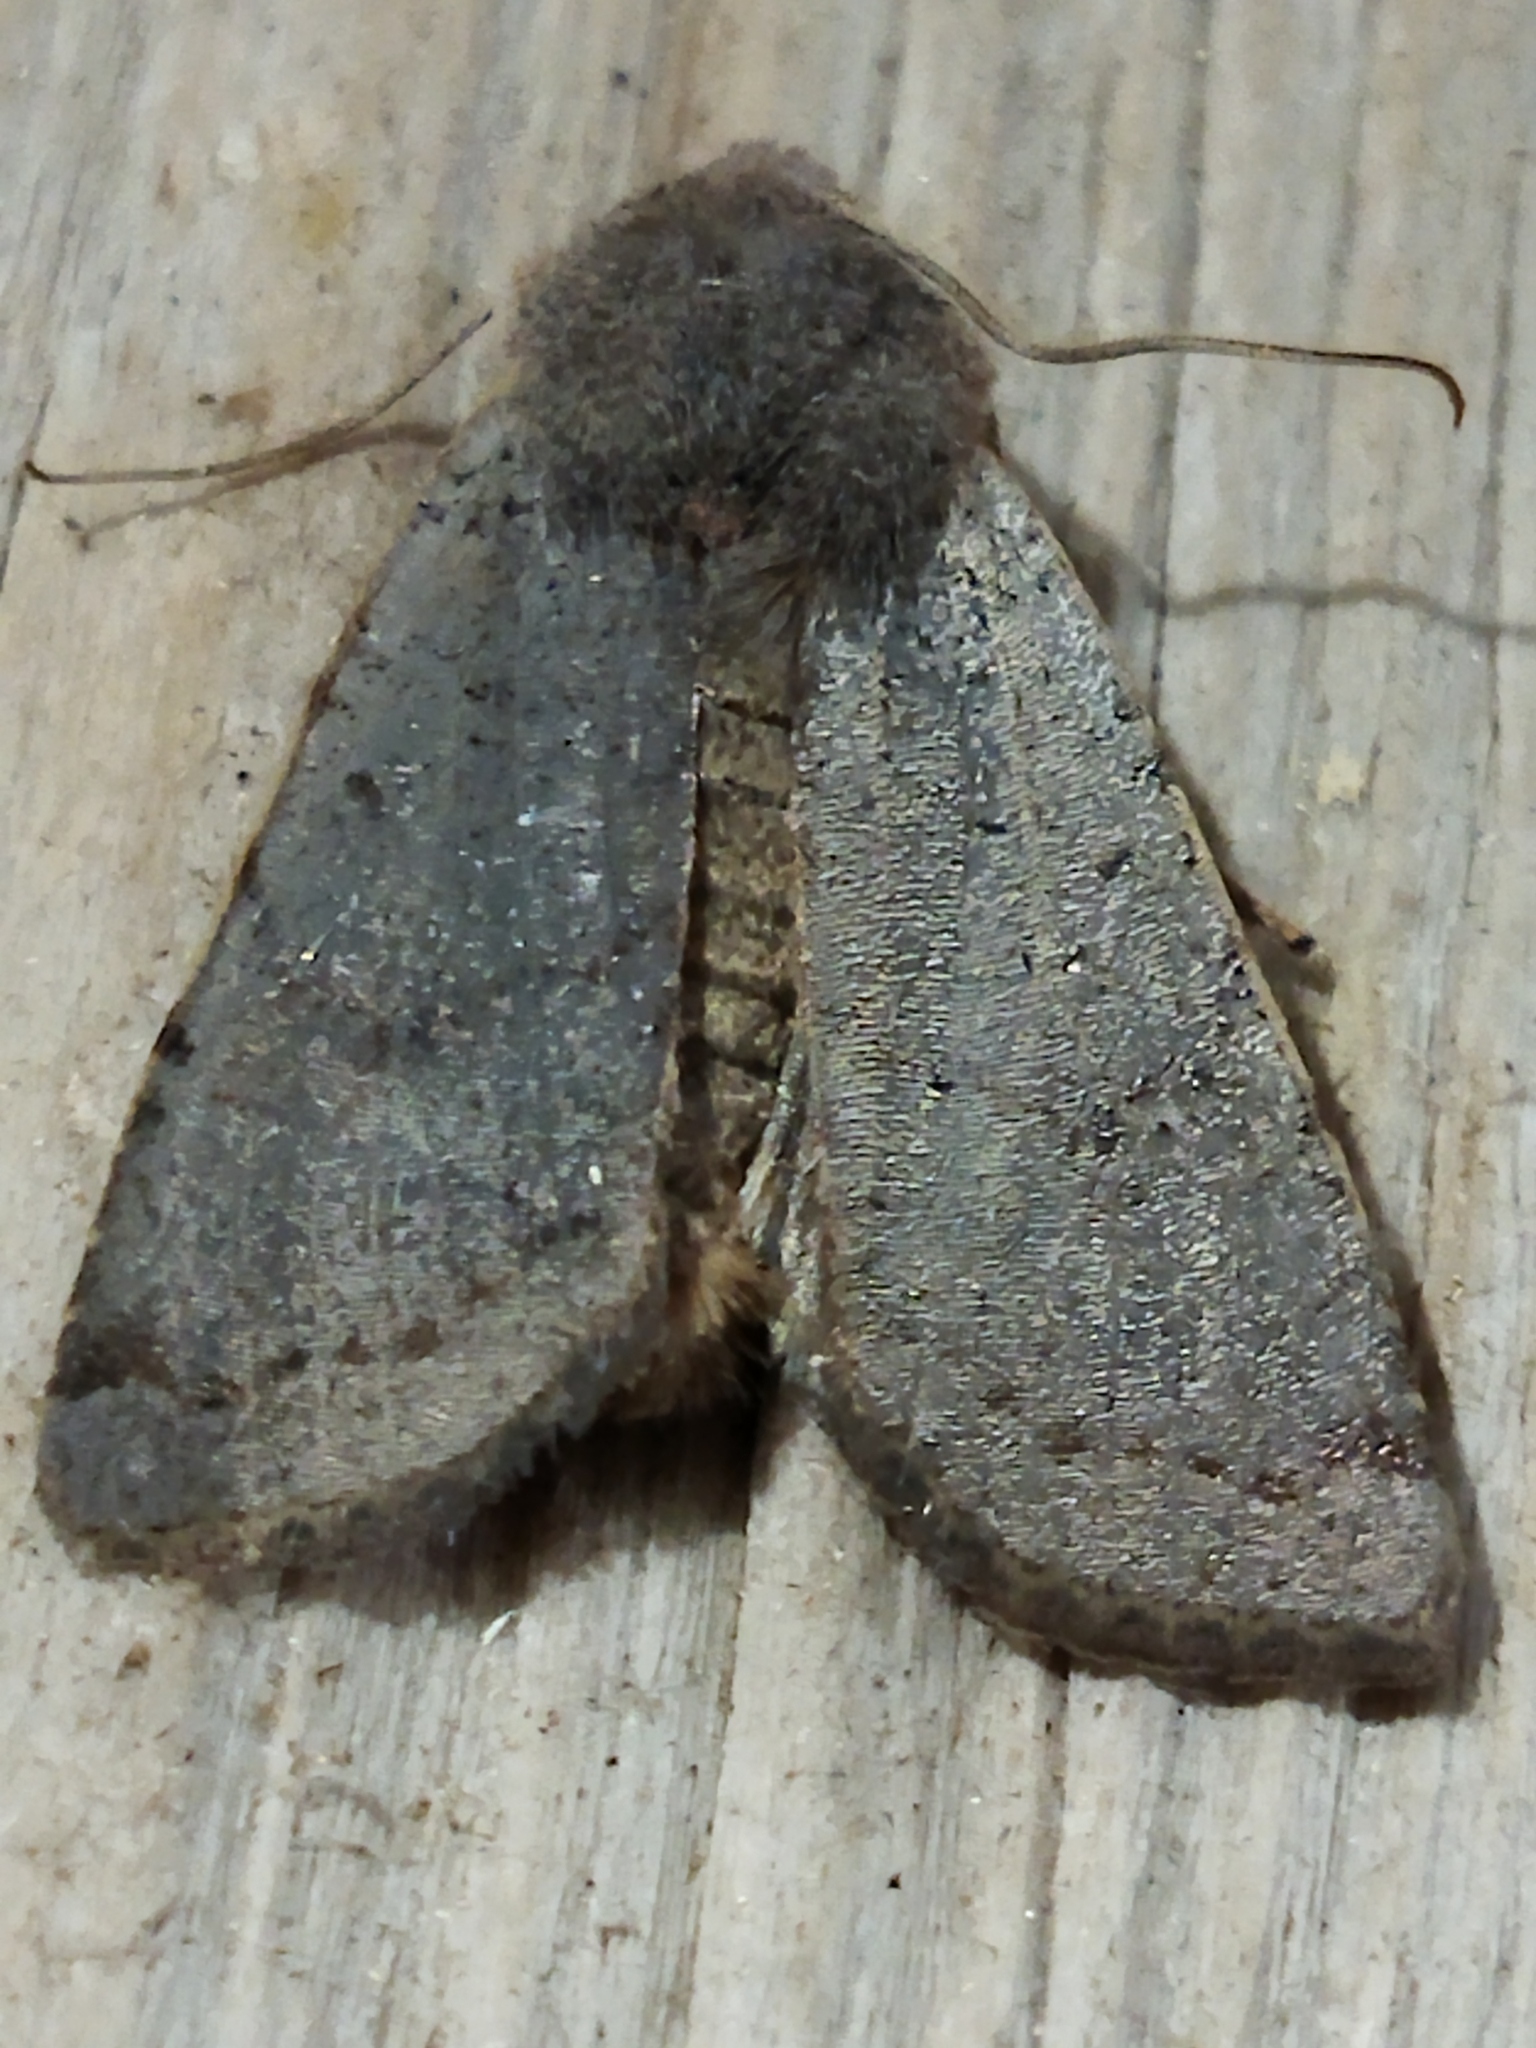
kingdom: Animalia
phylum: Arthropoda
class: Insecta
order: Lepidoptera
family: Noctuidae
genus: Agrochola
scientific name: Agrochola lychnidis
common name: Beaded chestnut
